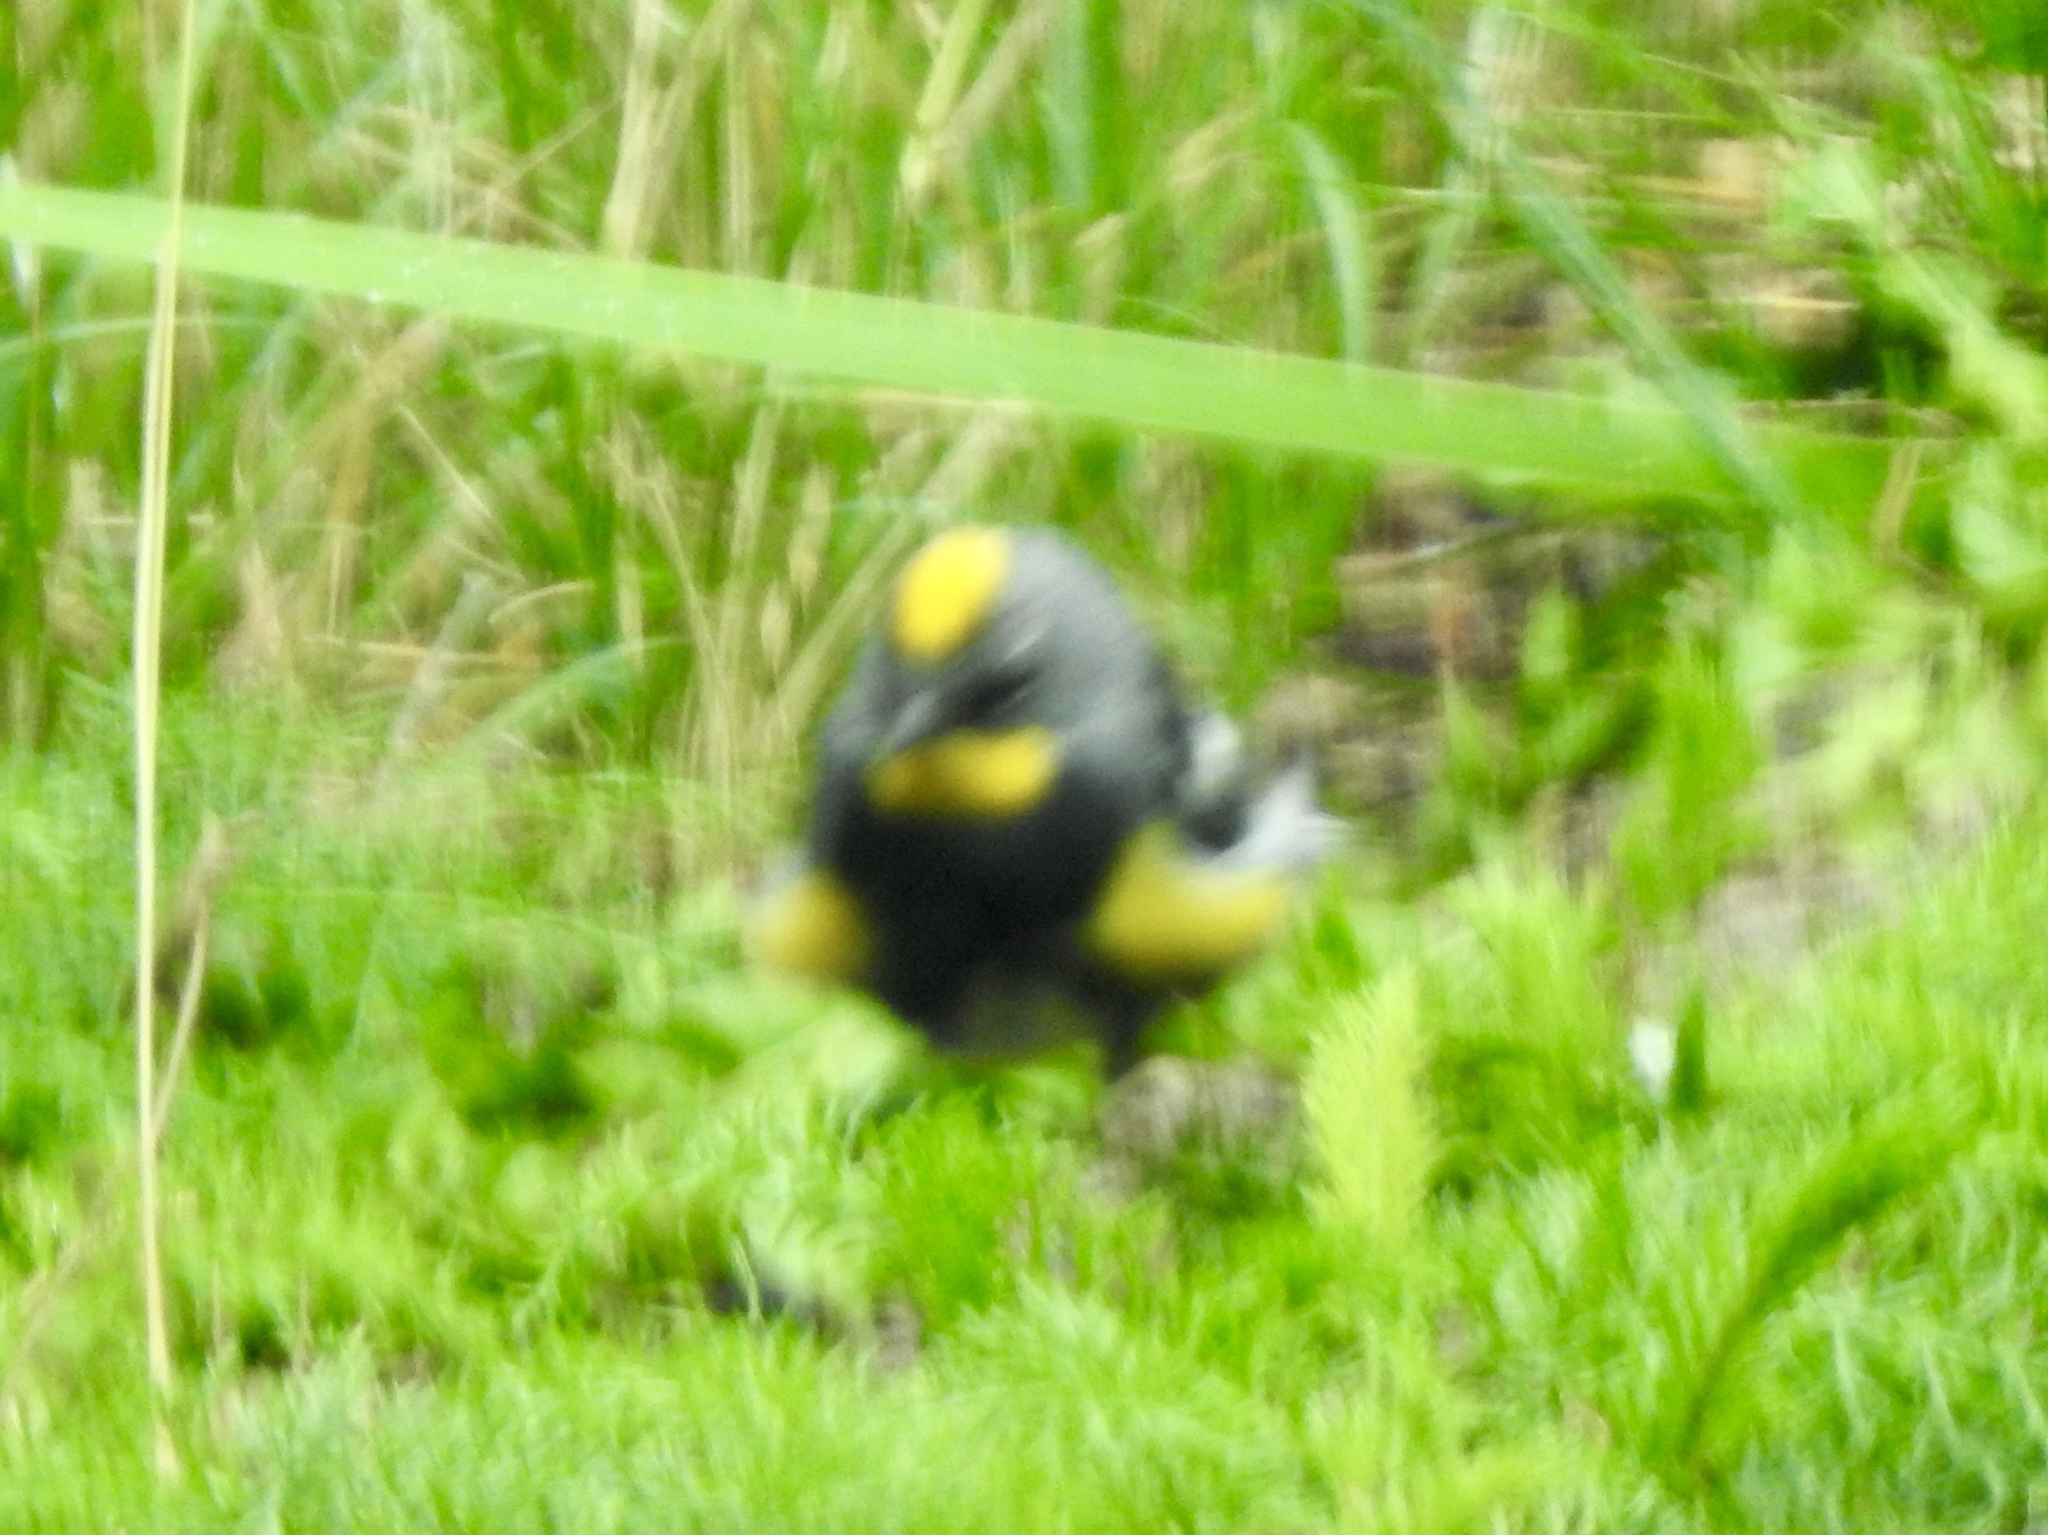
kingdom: Animalia
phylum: Chordata
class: Aves
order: Passeriformes
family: Parulidae
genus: Setophaga
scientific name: Setophaga coronata
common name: Myrtle warbler
